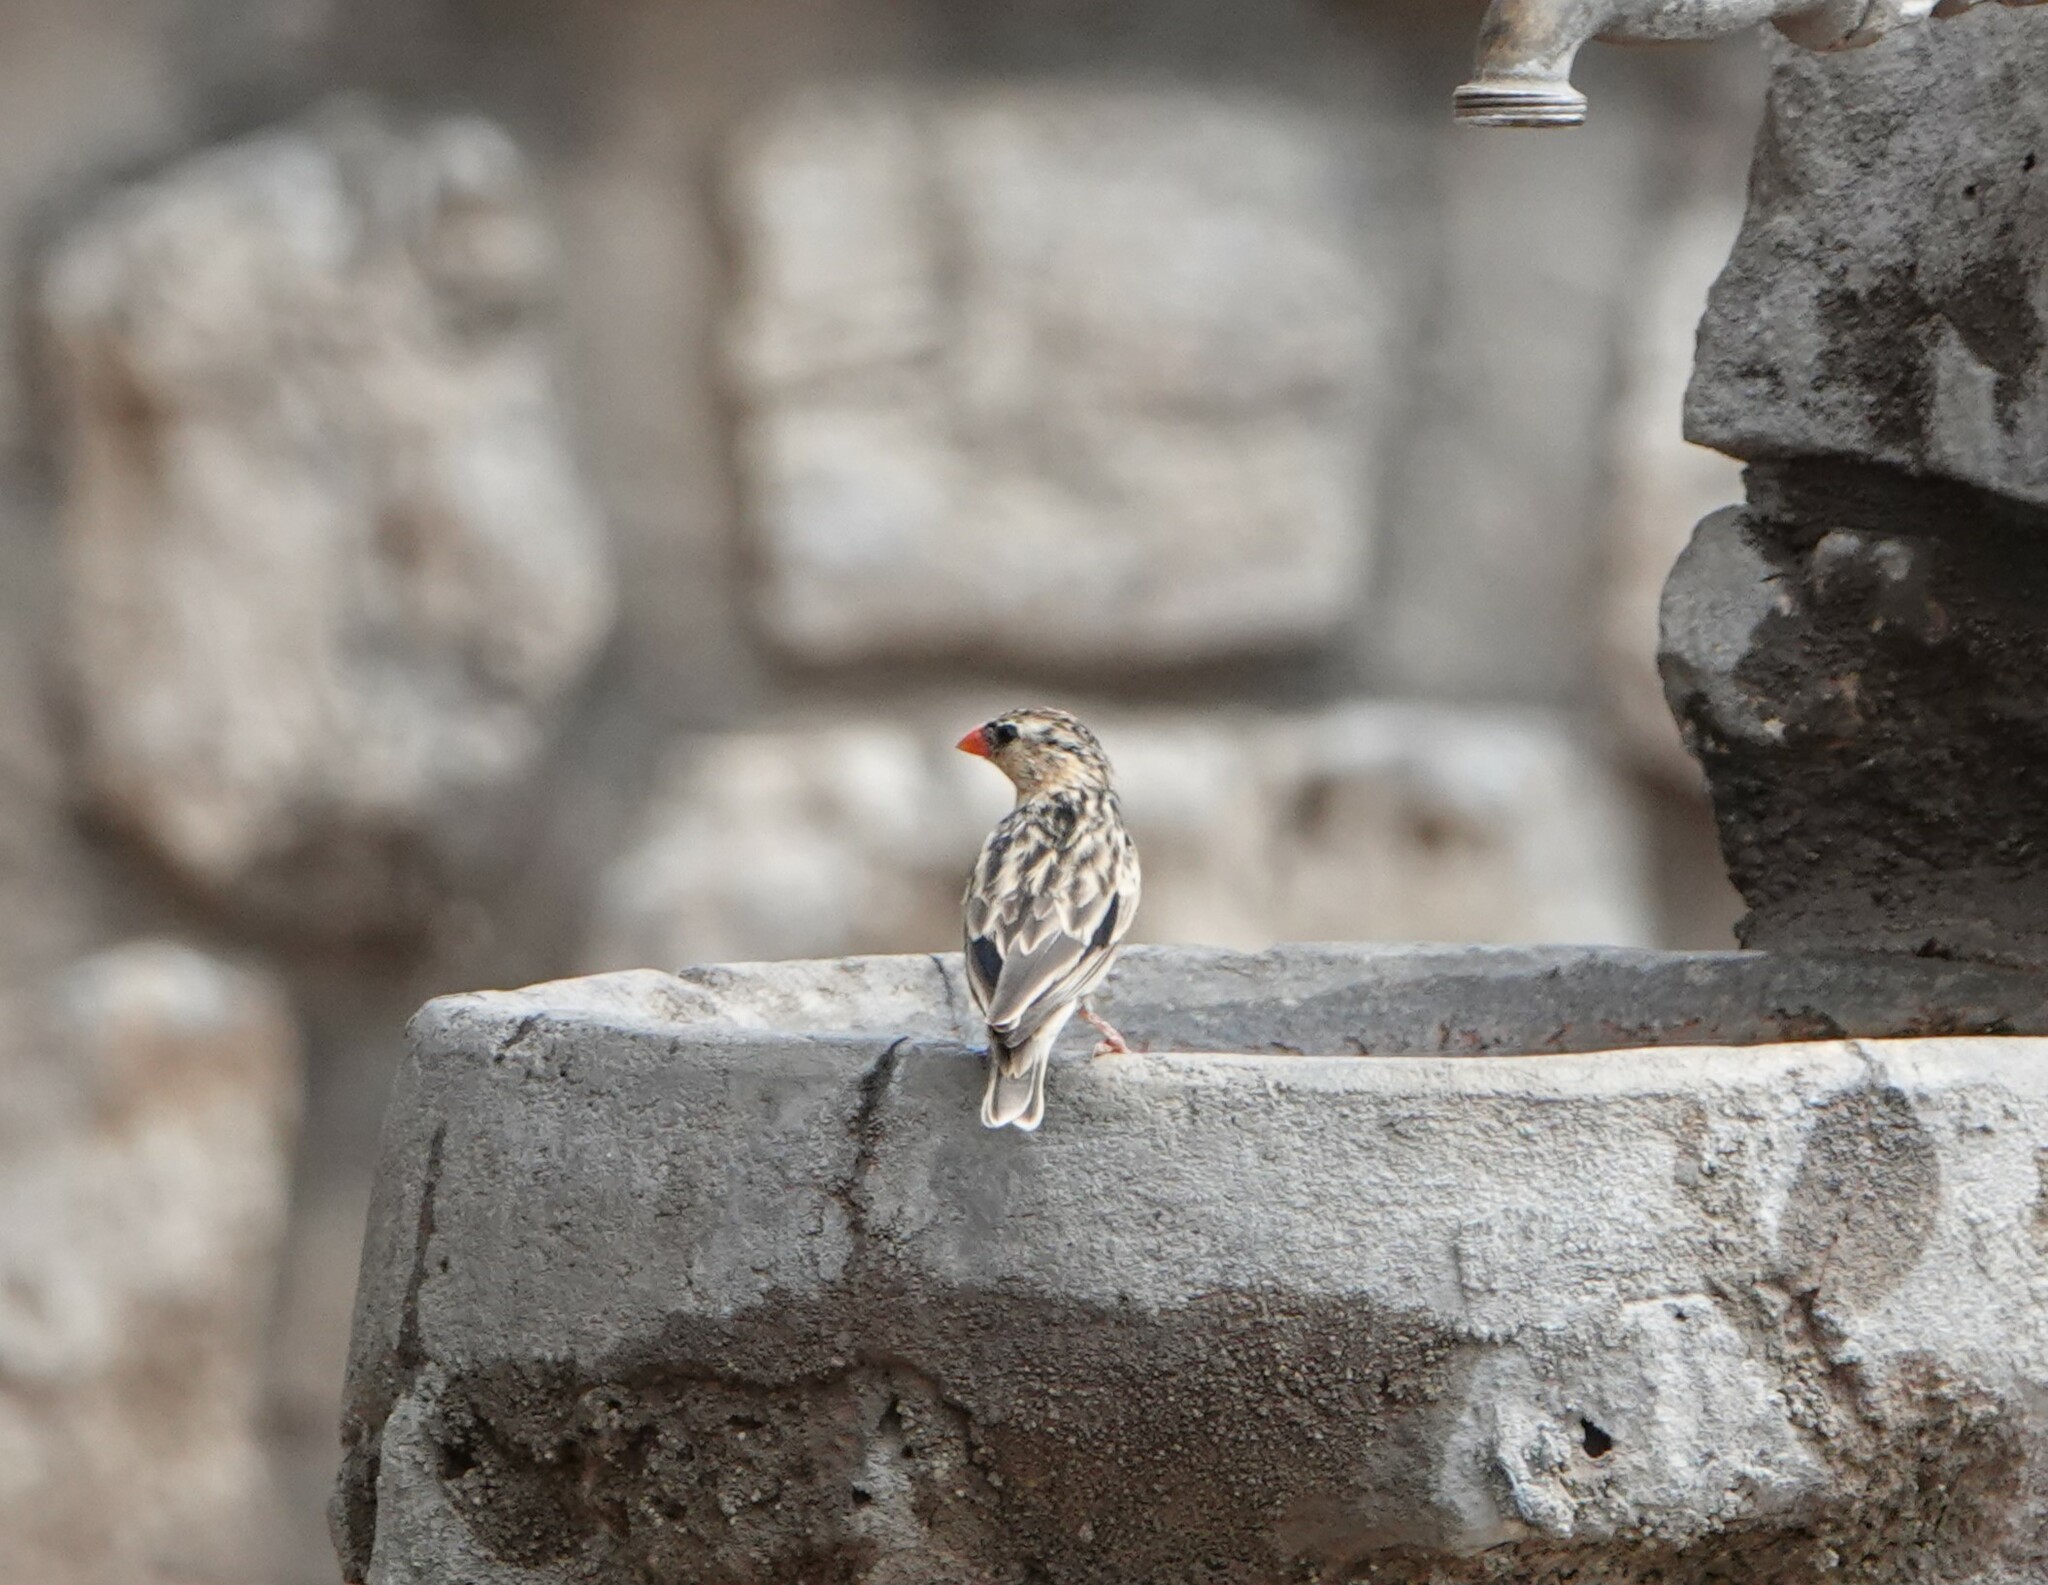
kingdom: Animalia
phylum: Chordata
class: Aves
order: Passeriformes
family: Viduidae
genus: Vidua
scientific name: Vidua regia
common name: Shaft-tailed whydah
